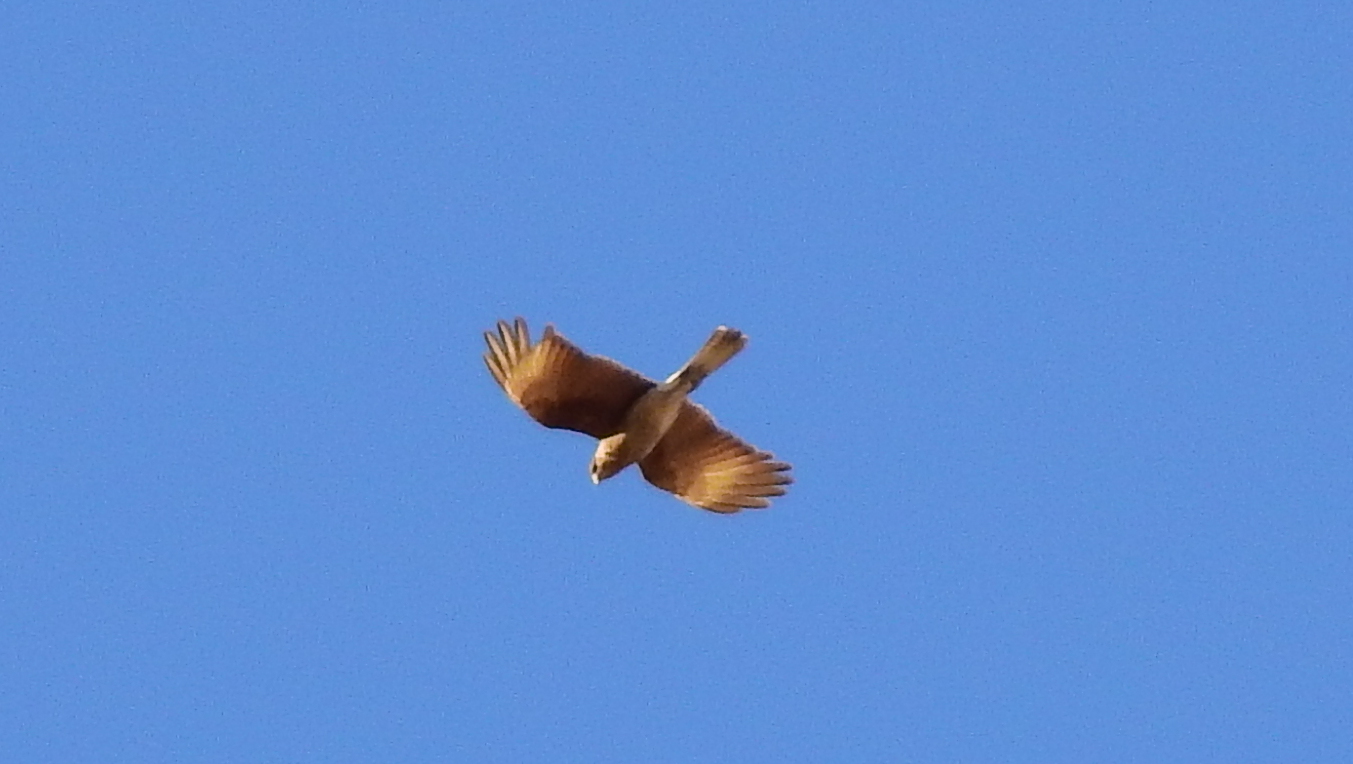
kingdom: Animalia
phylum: Chordata
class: Aves
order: Falconiformes
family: Falconidae
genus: Daptrius
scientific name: Daptrius
